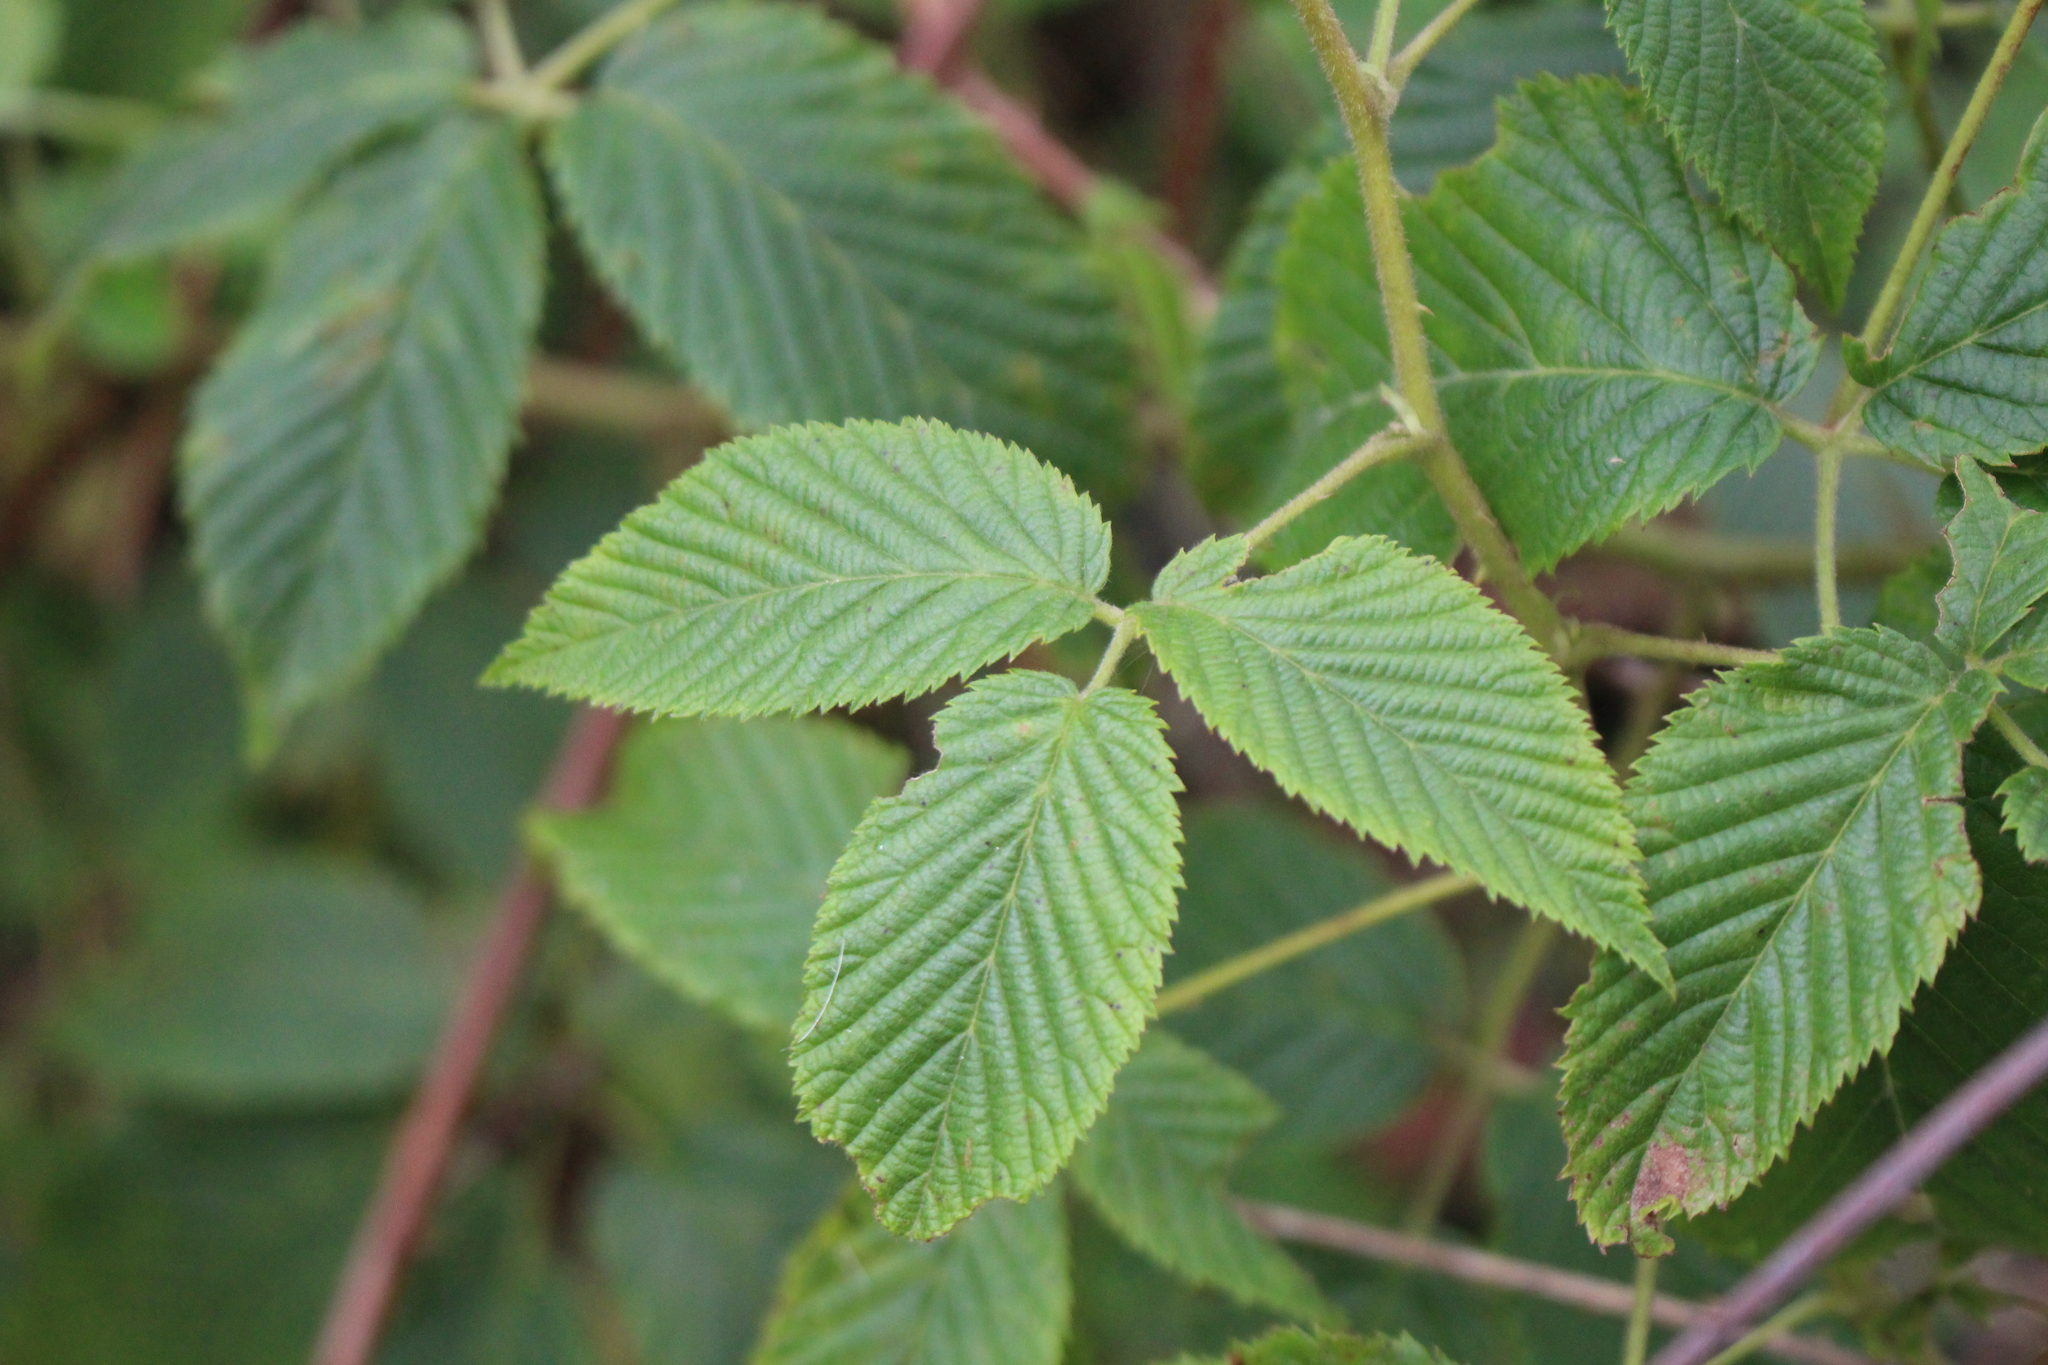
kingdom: Plantae
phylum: Tracheophyta
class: Magnoliopsida
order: Rosales
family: Rosaceae
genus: Rubus
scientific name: Rubus adenotrichos
